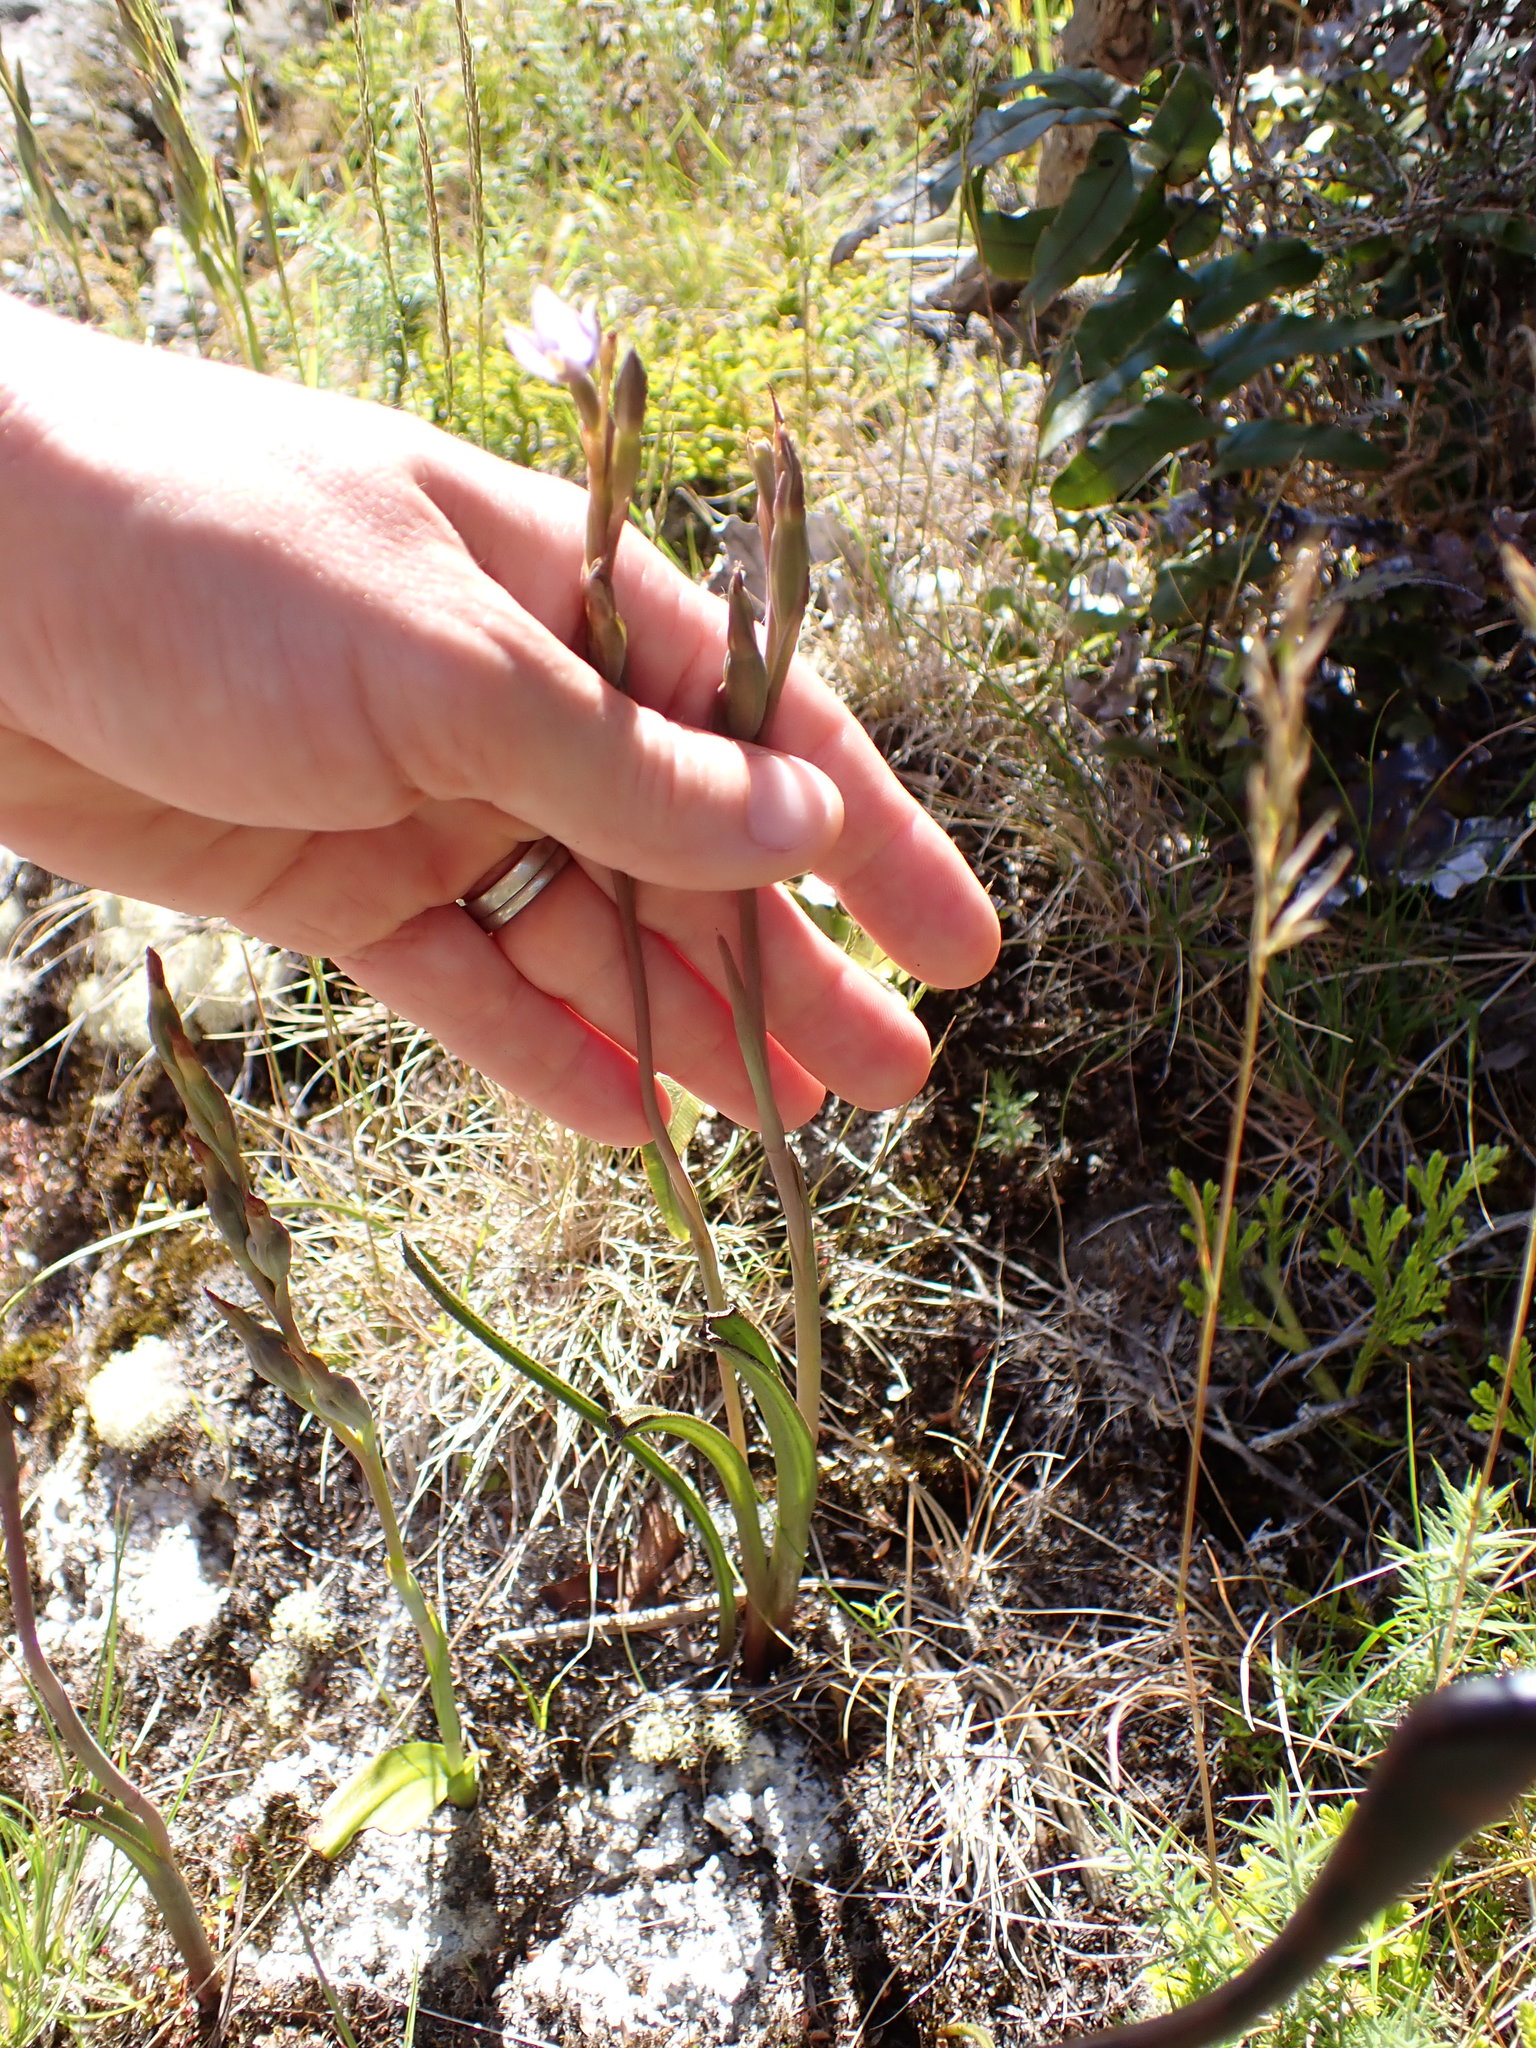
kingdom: Plantae
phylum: Tracheophyta
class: Liliopsida
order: Asparagales
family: Orchidaceae
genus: Thelymitra
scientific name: Thelymitra hatchii
